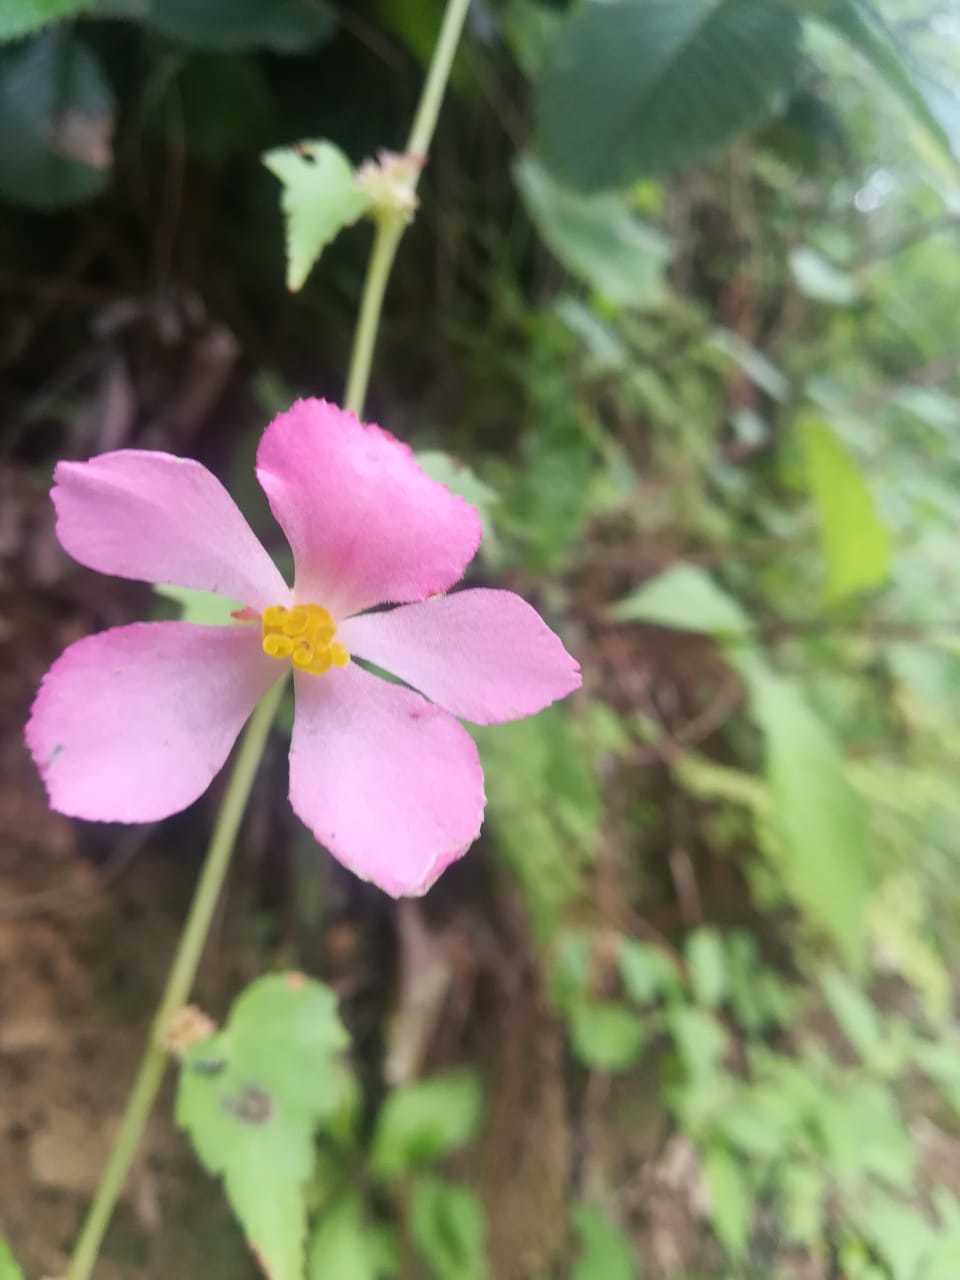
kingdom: Plantae
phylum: Tracheophyta
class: Magnoliopsida
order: Cucurbitales
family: Begoniaceae
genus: Begonia
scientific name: Begonia gracilis
